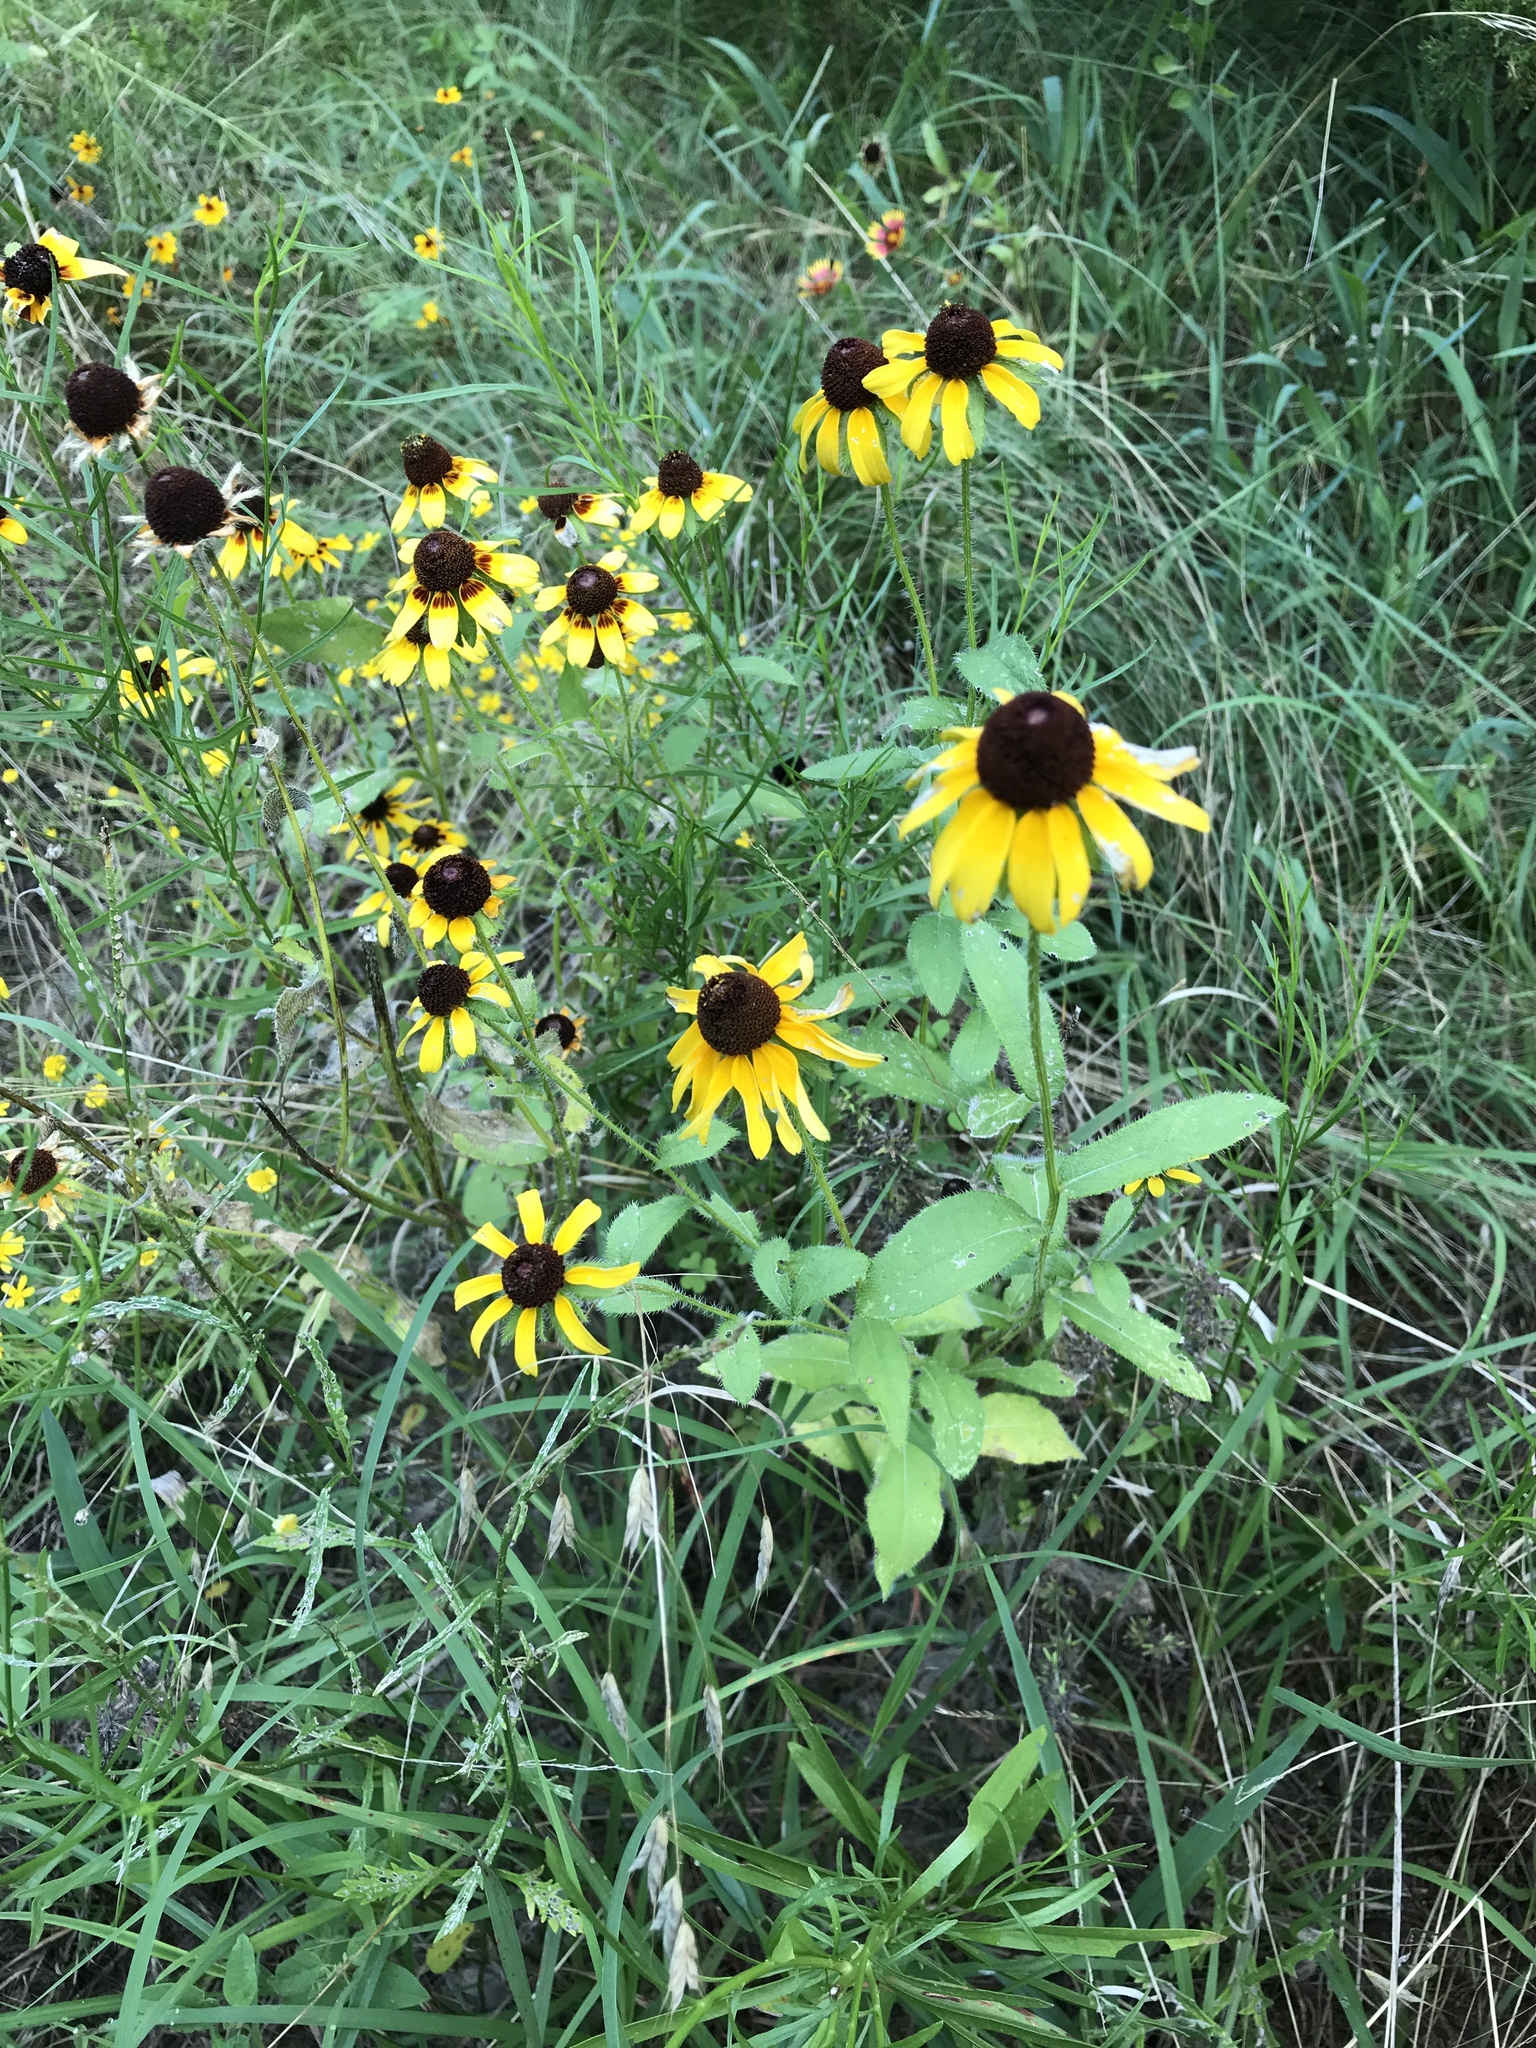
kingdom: Plantae
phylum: Tracheophyta
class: Magnoliopsida
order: Asterales
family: Asteraceae
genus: Rudbeckia
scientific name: Rudbeckia hirta
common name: Black-eyed-susan
